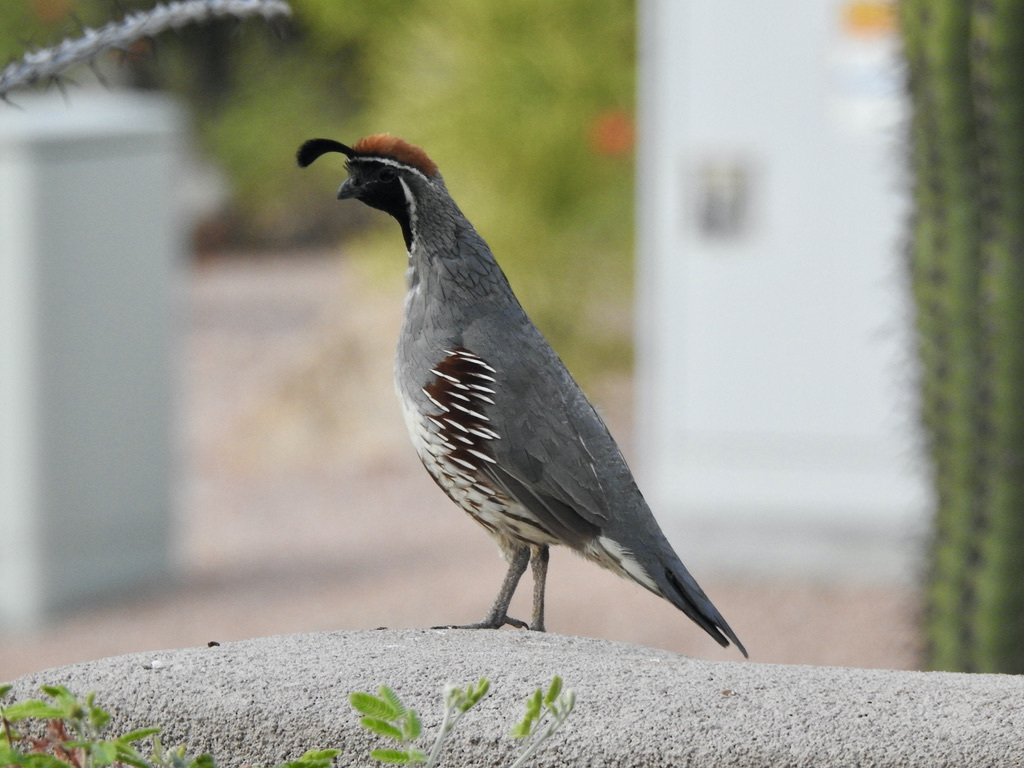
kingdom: Animalia
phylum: Chordata
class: Aves
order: Galliformes
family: Odontophoridae
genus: Callipepla
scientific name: Callipepla gambelii
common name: Gambel's quail
